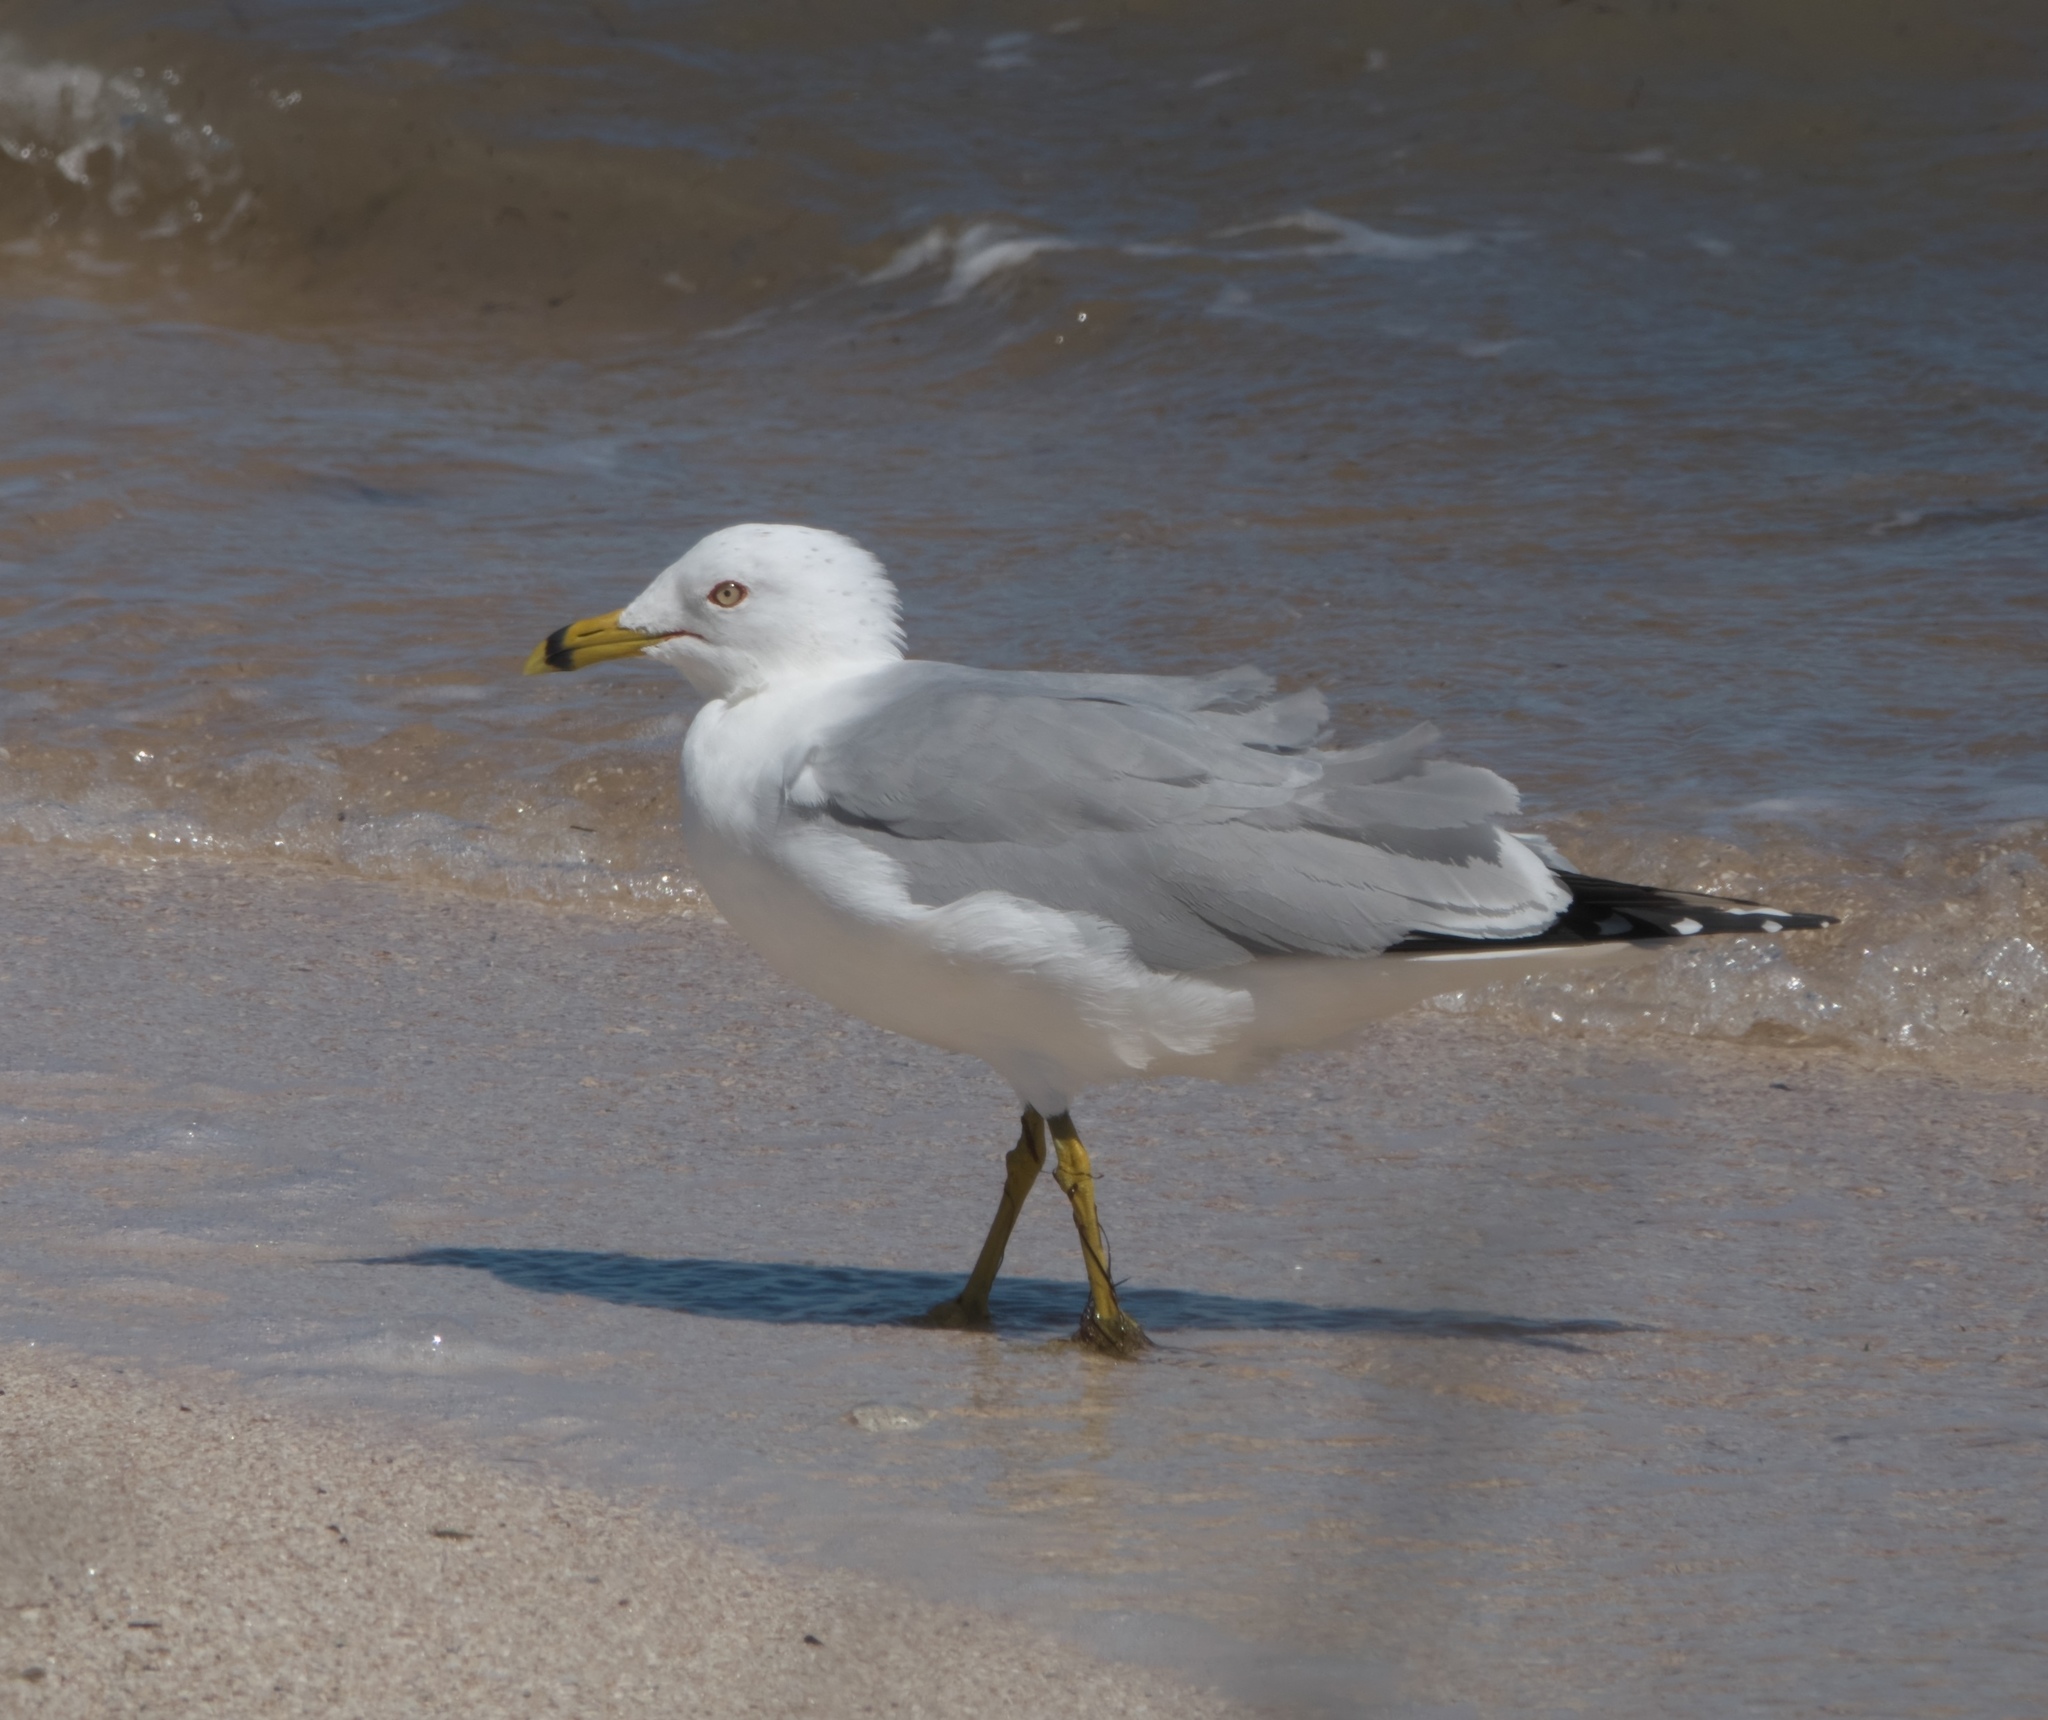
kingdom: Animalia
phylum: Chordata
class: Aves
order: Charadriiformes
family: Laridae
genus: Larus
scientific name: Larus delawarensis
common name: Ring-billed gull
